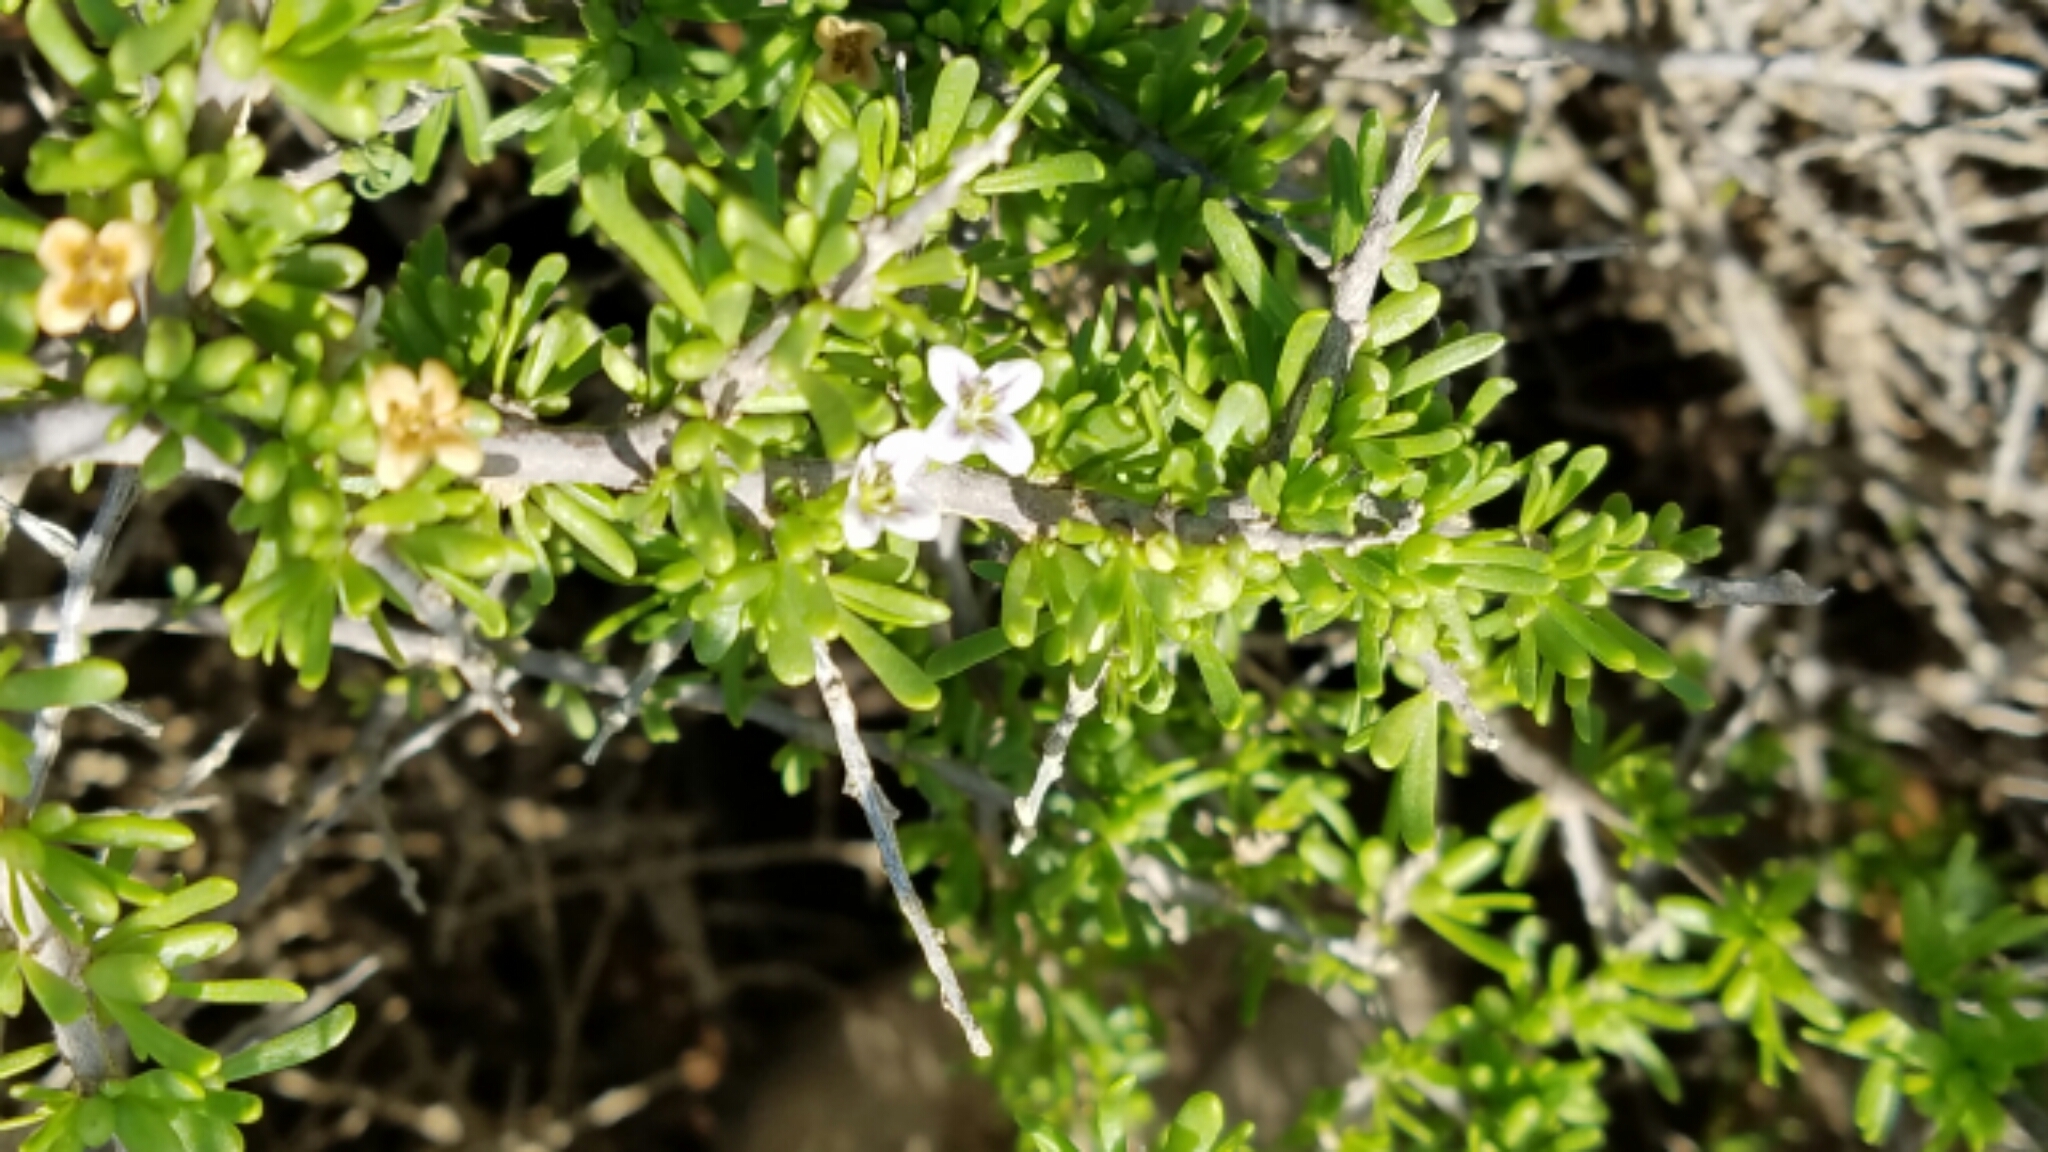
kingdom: Plantae
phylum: Tracheophyta
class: Magnoliopsida
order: Solanales
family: Solanaceae
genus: Lycium
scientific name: Lycium californicum
